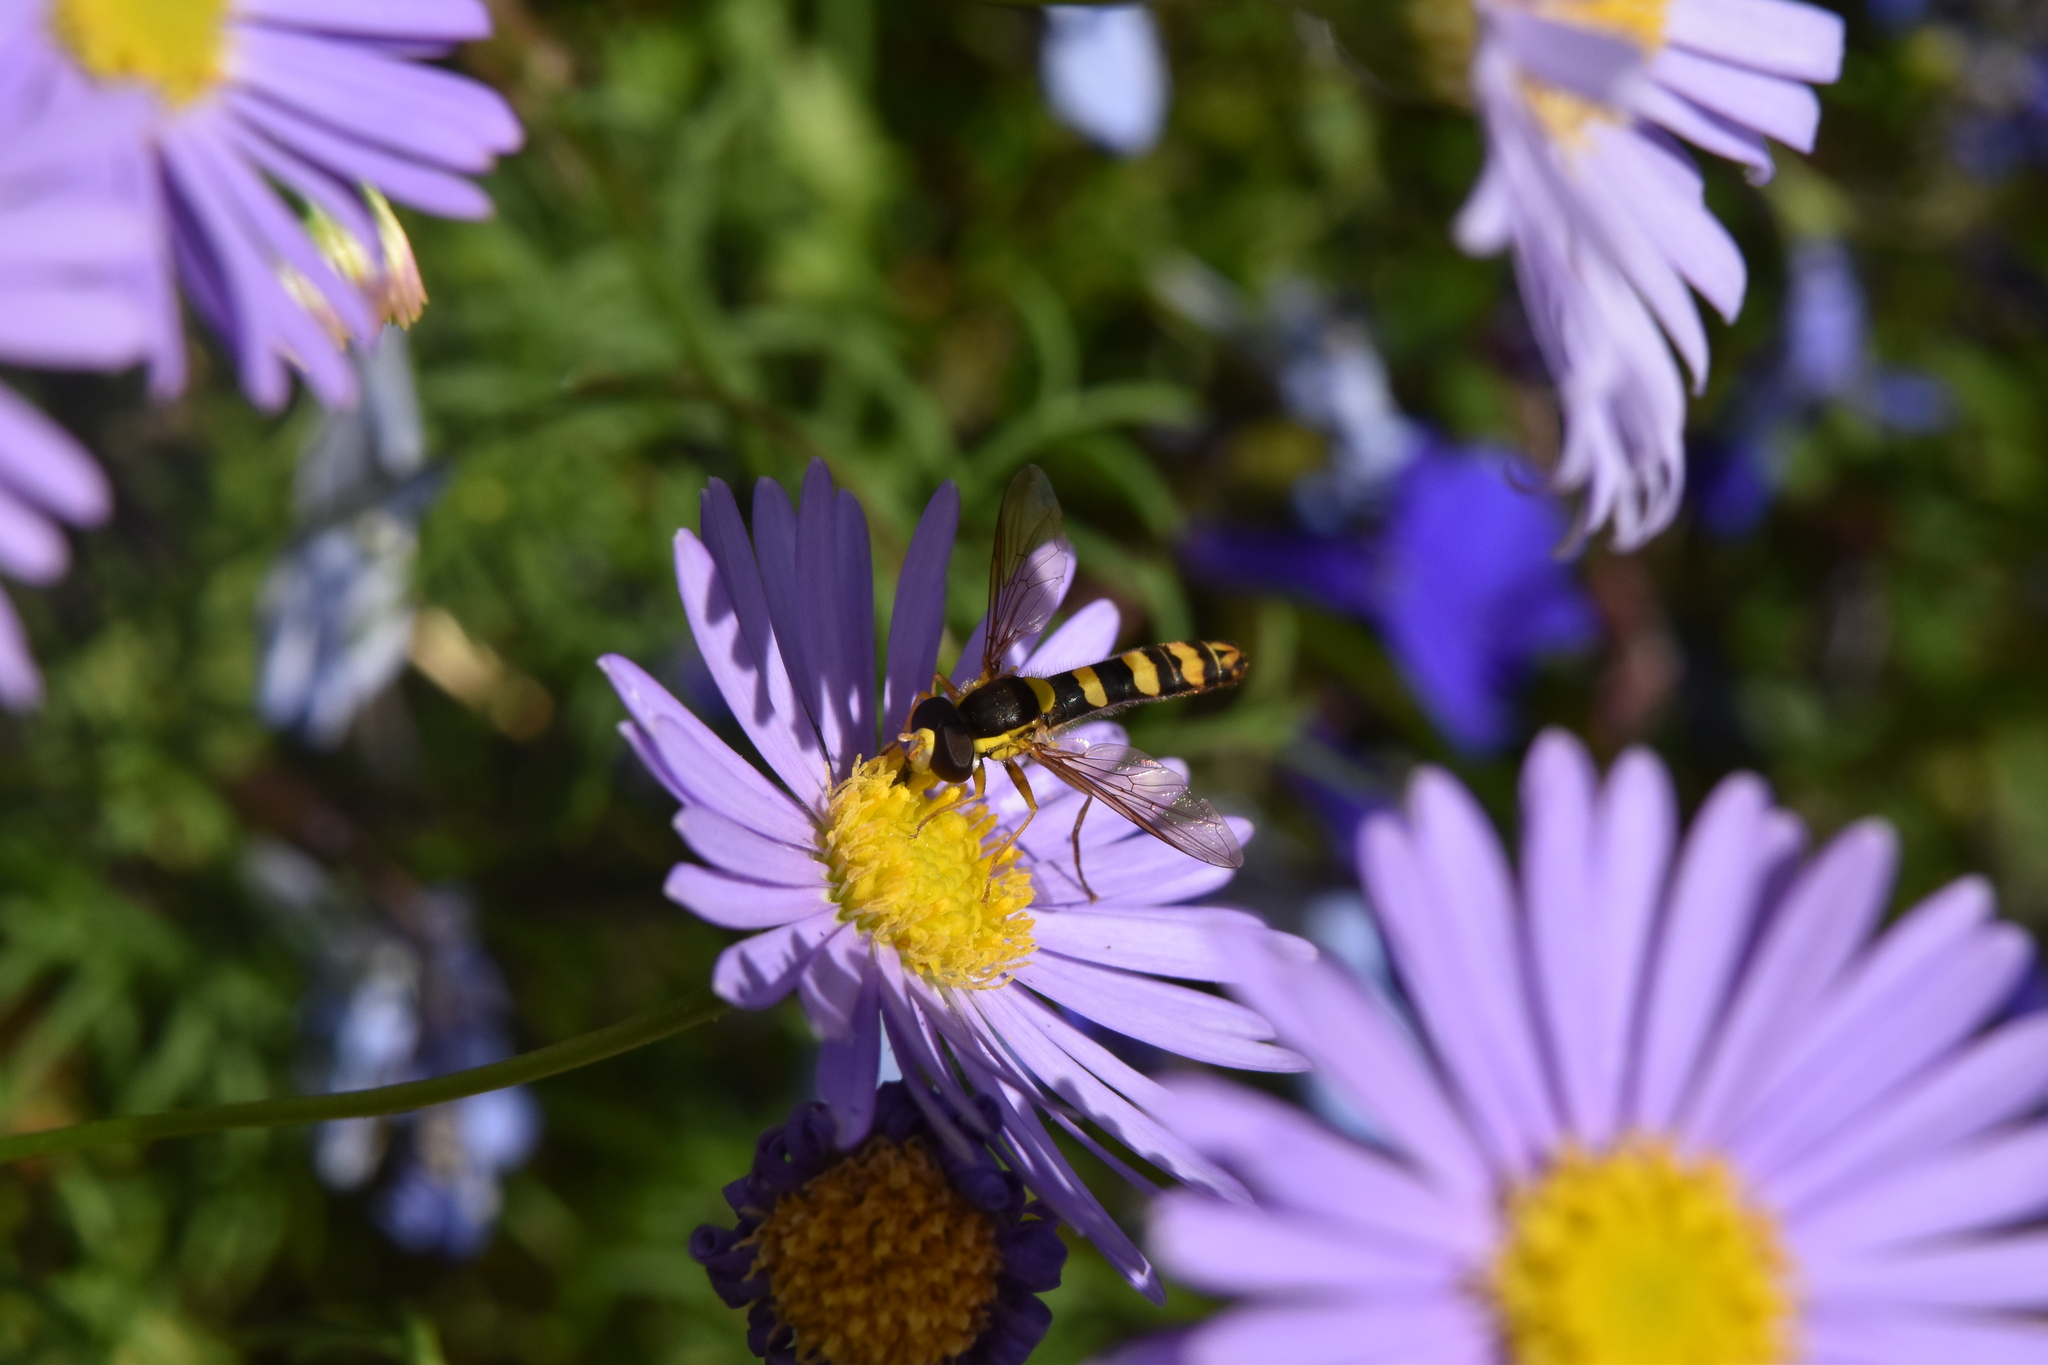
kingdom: Animalia
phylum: Arthropoda
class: Insecta
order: Diptera
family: Syrphidae
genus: Sphaerophoria
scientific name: Sphaerophoria
